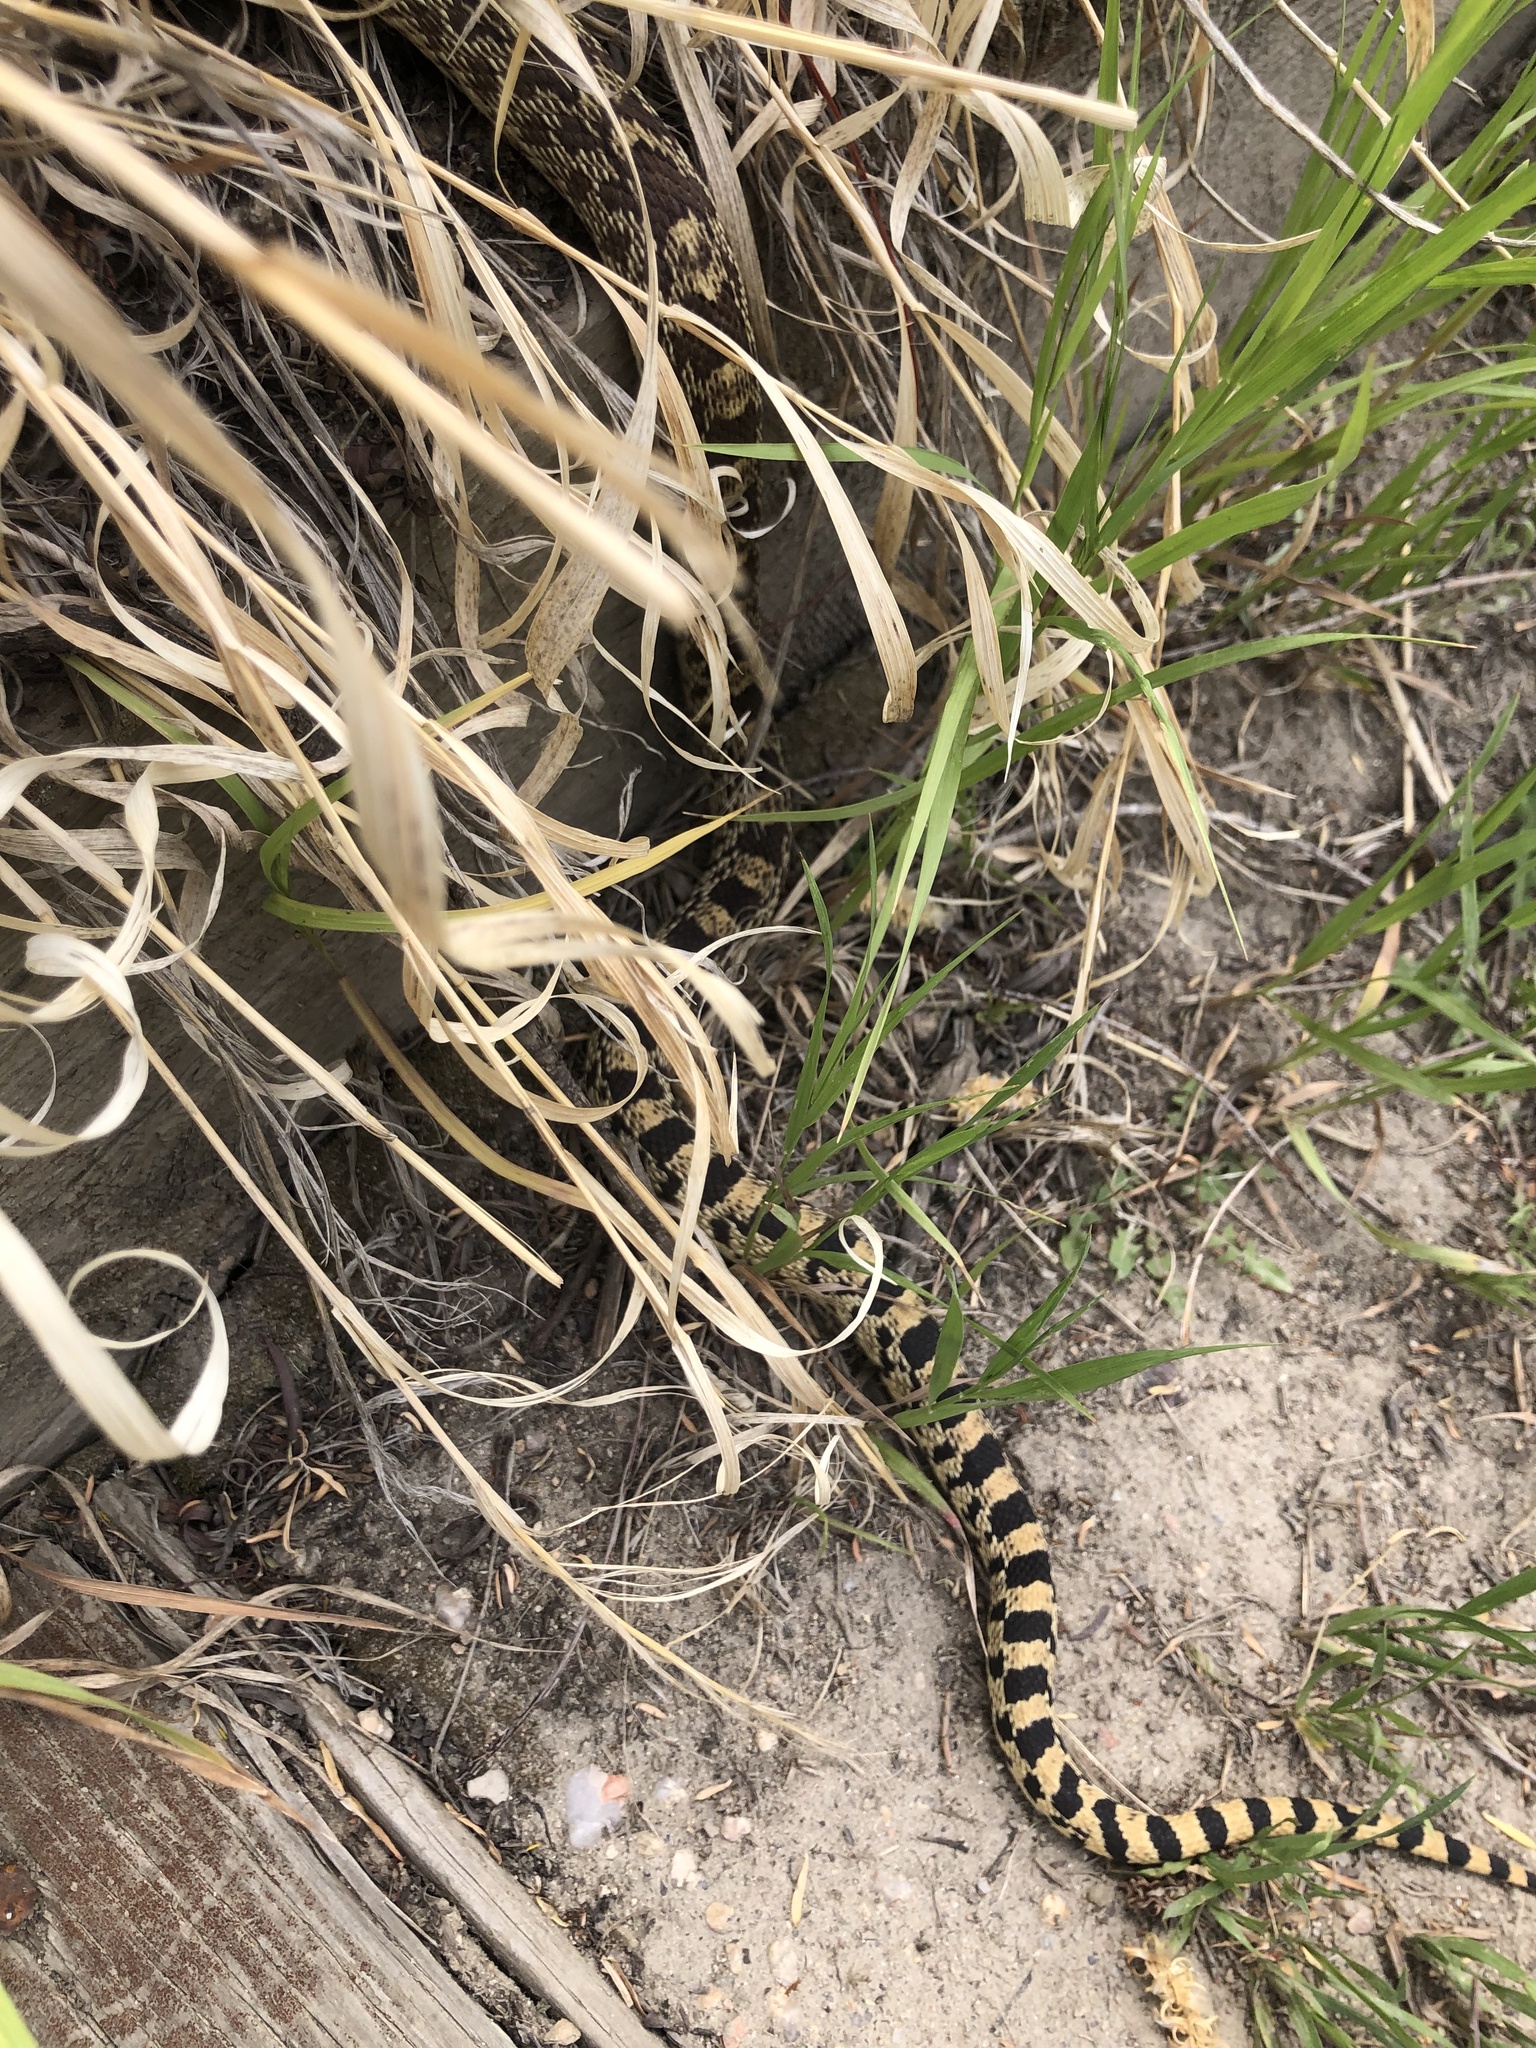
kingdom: Animalia
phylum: Chordata
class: Squamata
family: Colubridae
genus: Pituophis
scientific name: Pituophis catenifer
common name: Gopher snake
